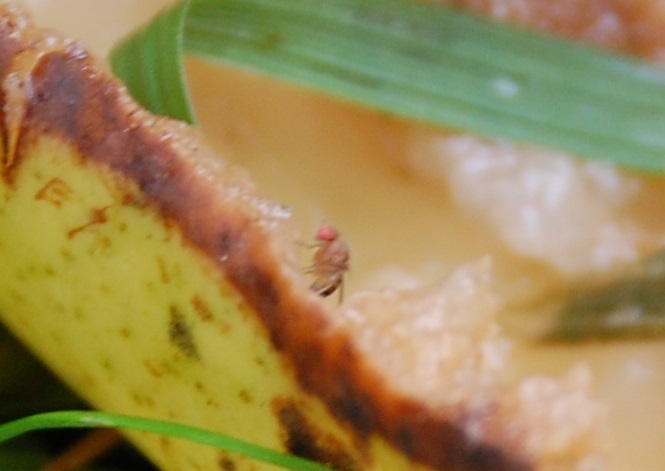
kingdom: Animalia
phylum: Arthropoda
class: Insecta
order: Diptera
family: Drosophilidae
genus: Drosophila
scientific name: Drosophila suzukii
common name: Spotted-wing drosophila
